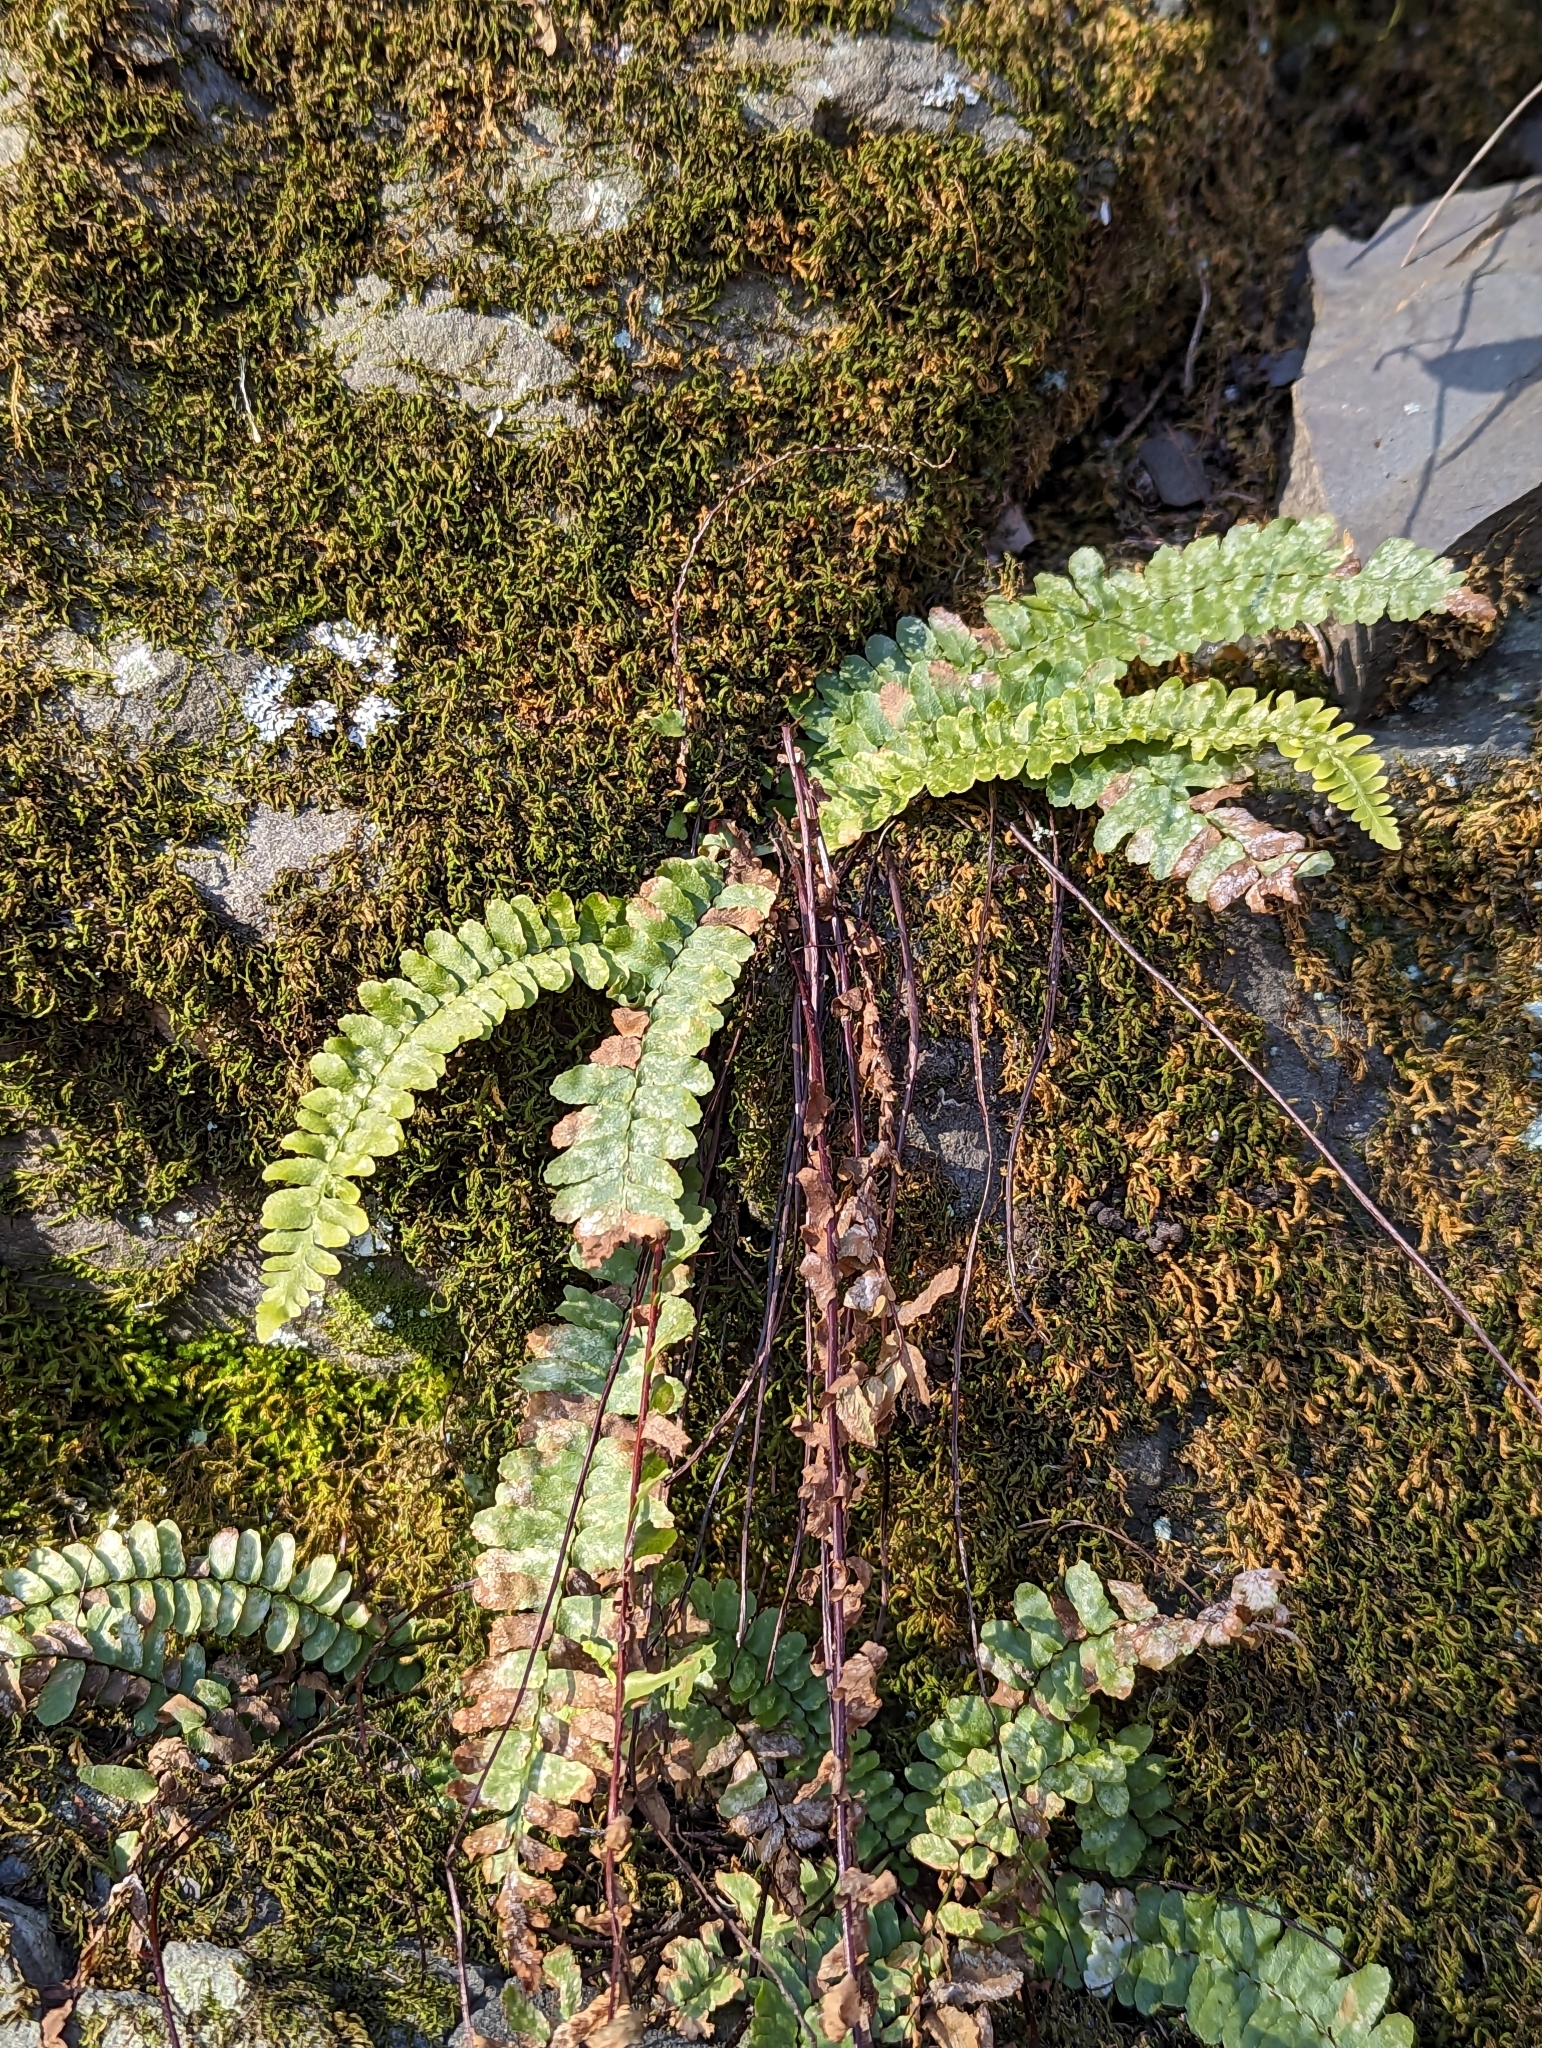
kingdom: Plantae
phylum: Tracheophyta
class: Polypodiopsida
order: Polypodiales
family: Aspleniaceae
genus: Asplenium
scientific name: Asplenium platyneuron
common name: Ebony spleenwort
